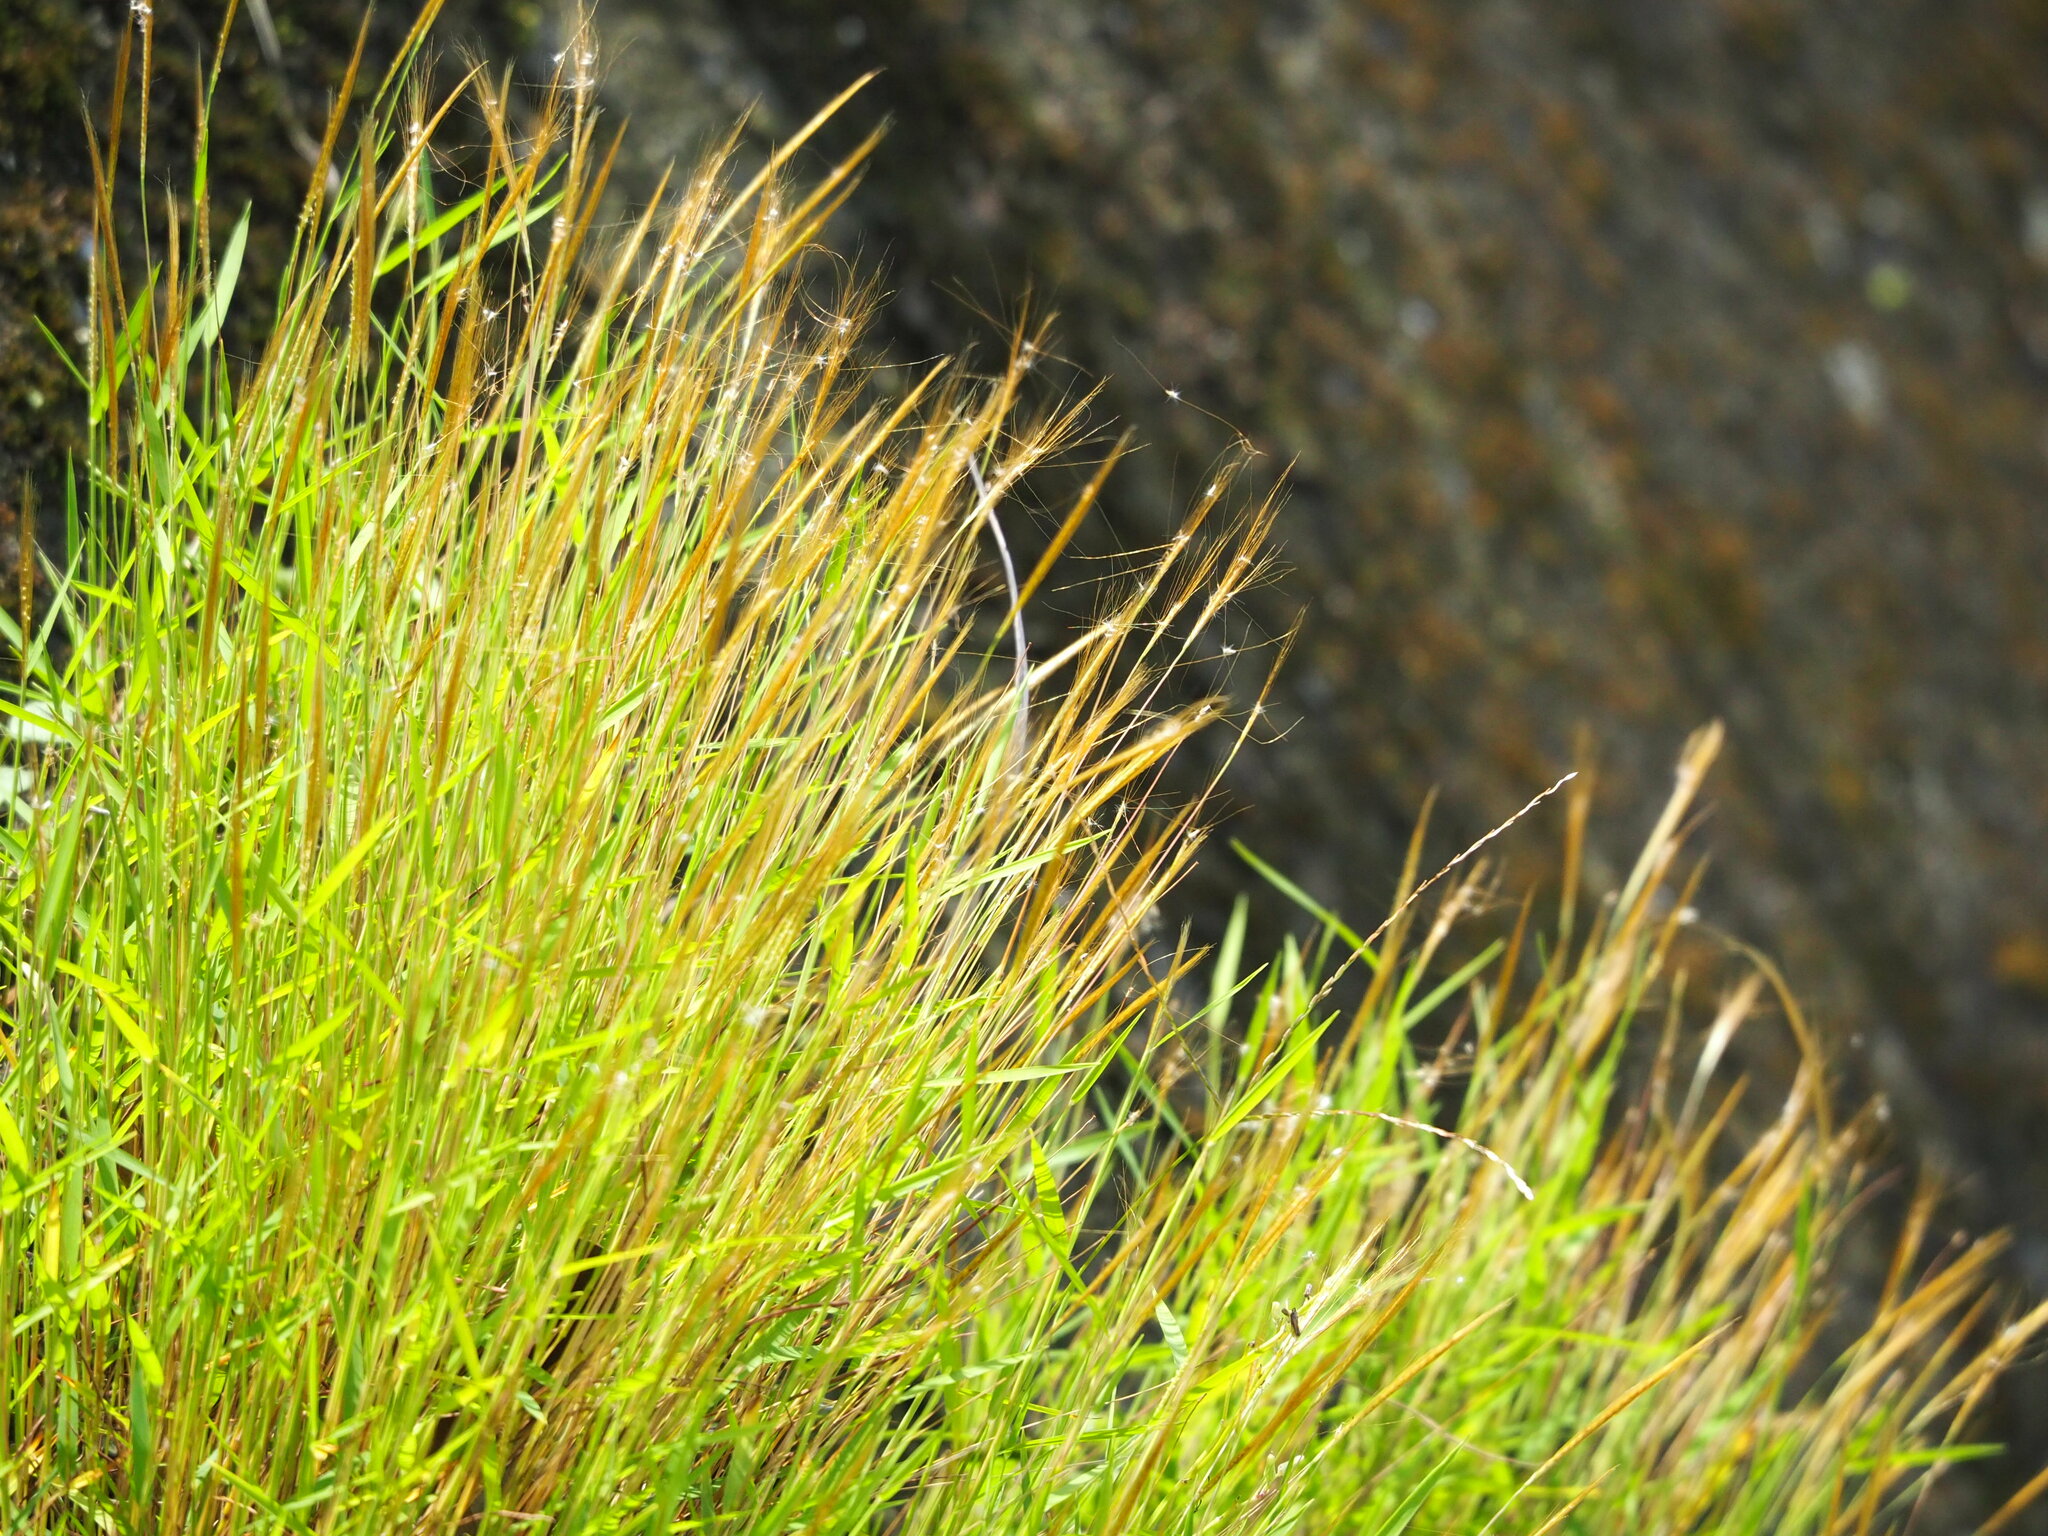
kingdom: Plantae
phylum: Tracheophyta
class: Liliopsida
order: Poales
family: Poaceae
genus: Pogonatherum
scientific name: Pogonatherum crinitum
